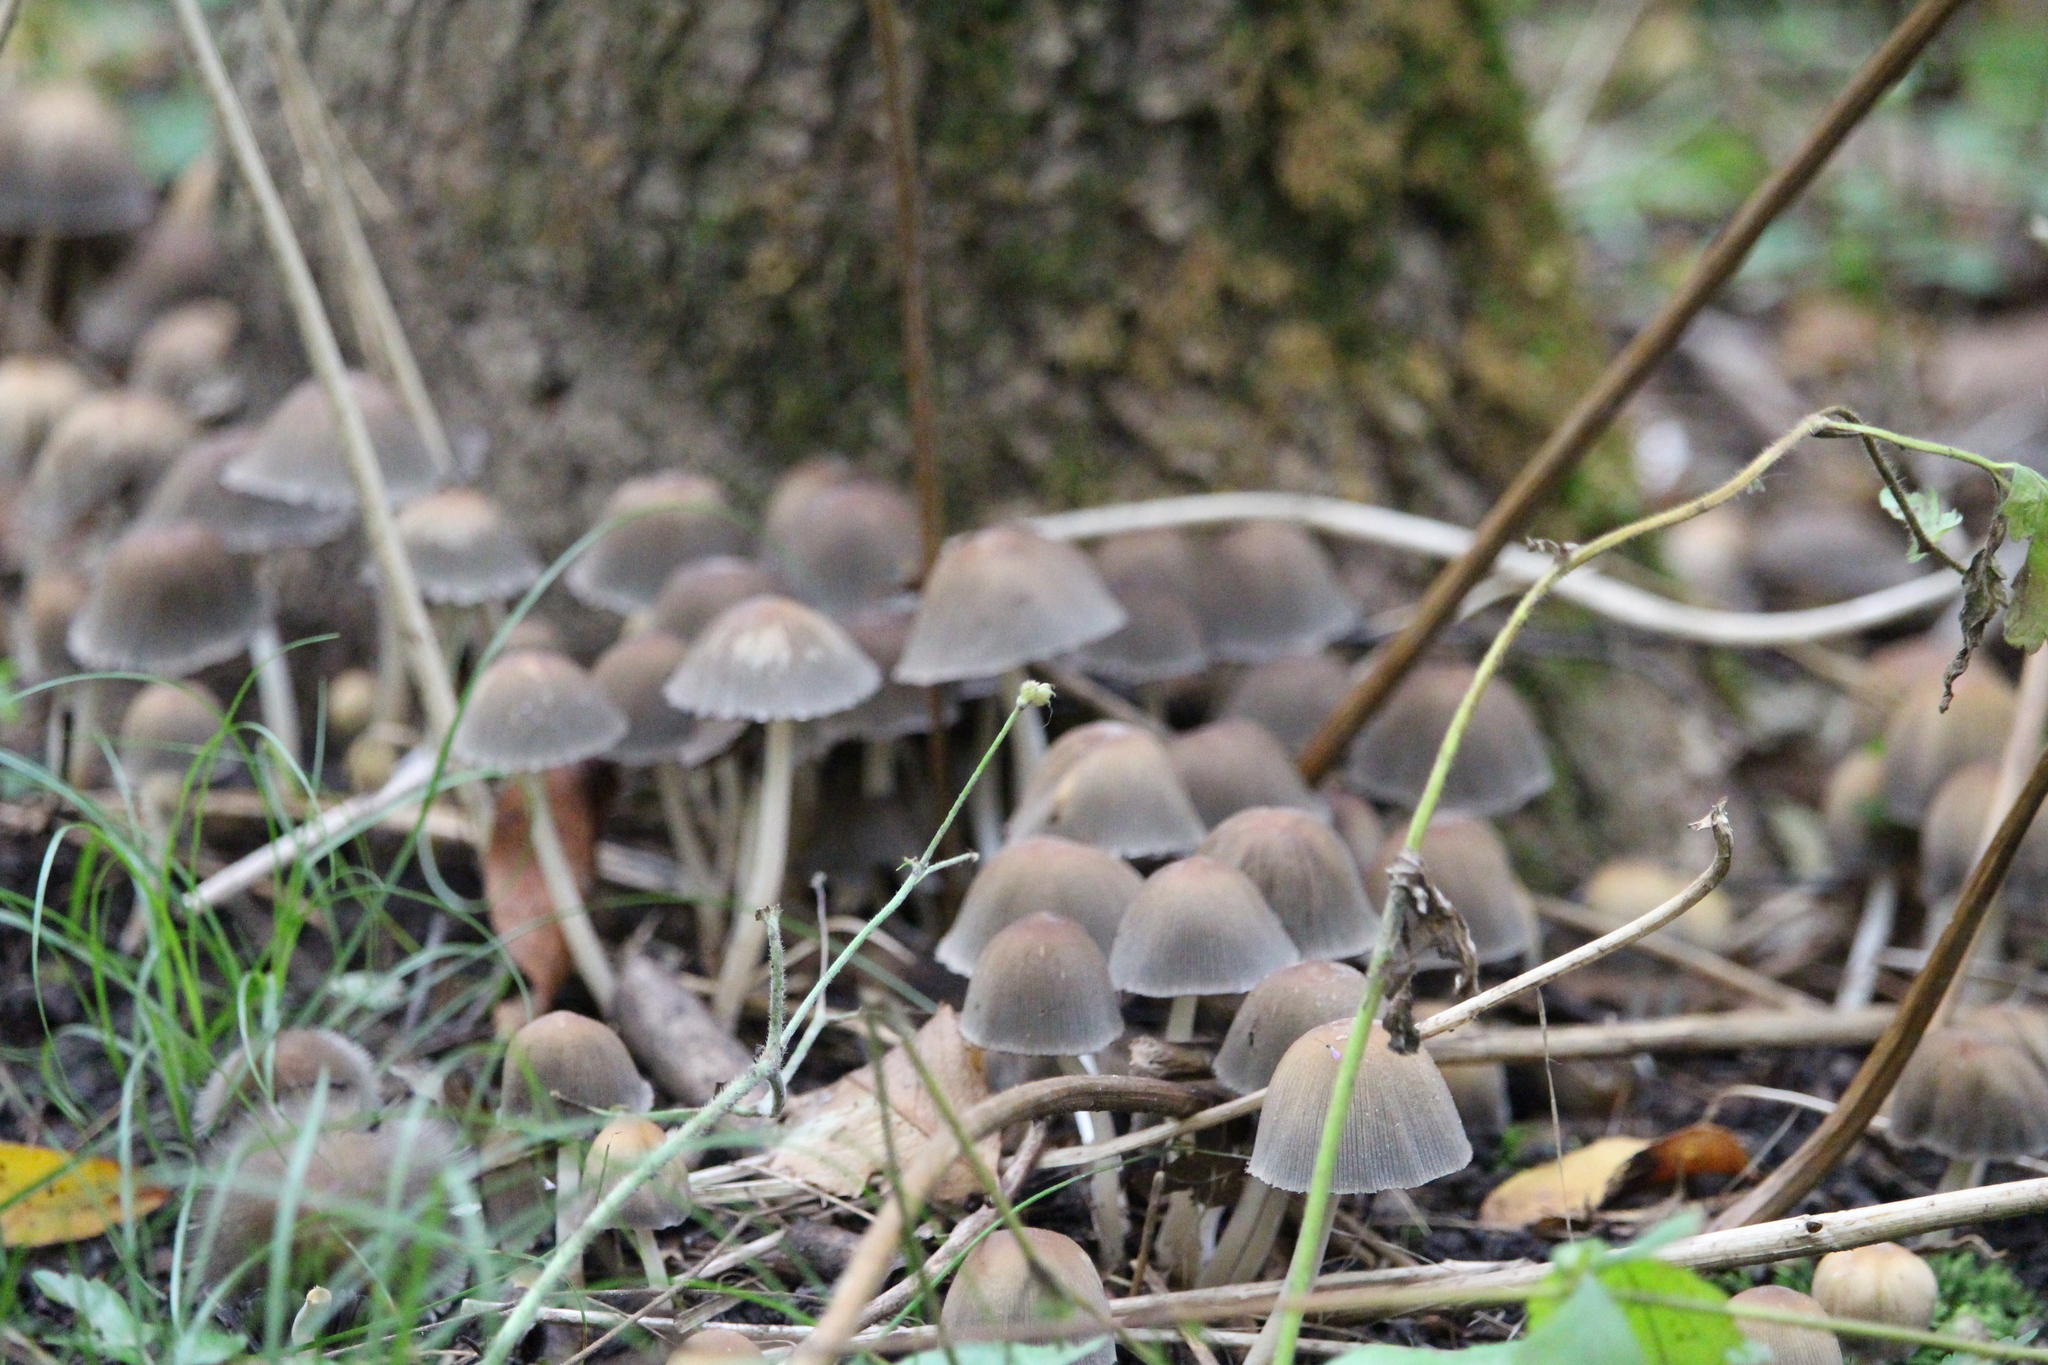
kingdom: Fungi
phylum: Basidiomycota
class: Agaricomycetes
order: Agaricales
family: Mycenaceae
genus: Mycena
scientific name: Mycena leptocephala
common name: Nitrous bonnet
